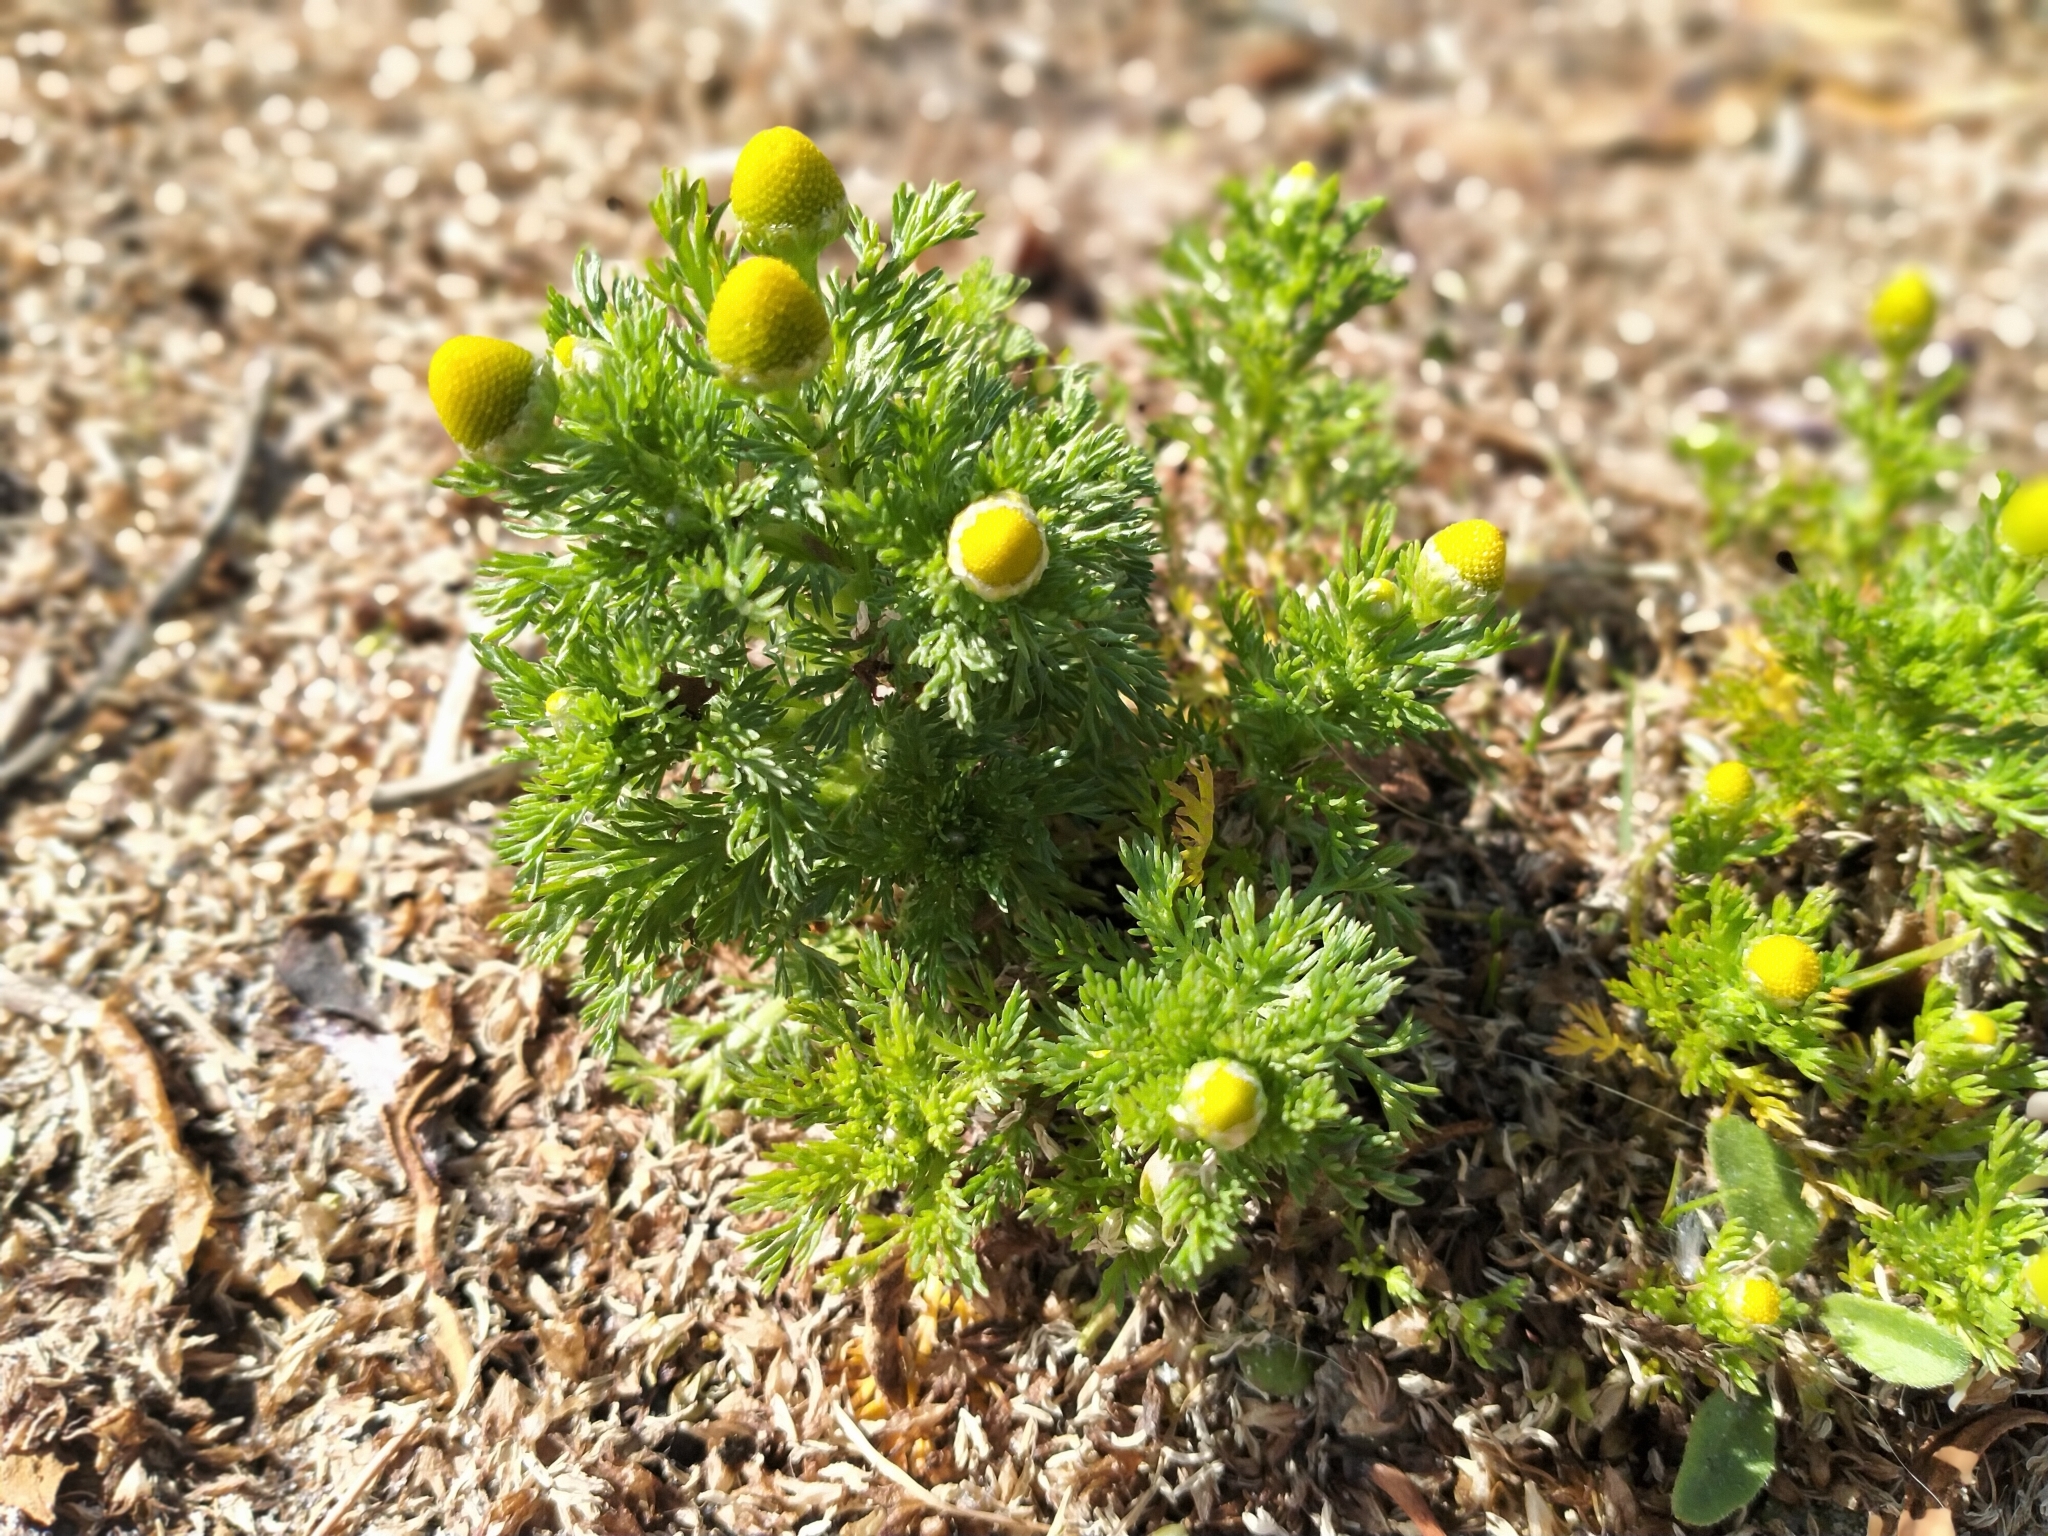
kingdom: Plantae
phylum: Tracheophyta
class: Magnoliopsida
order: Asterales
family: Asteraceae
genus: Matricaria
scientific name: Matricaria discoidea
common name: Disc mayweed
